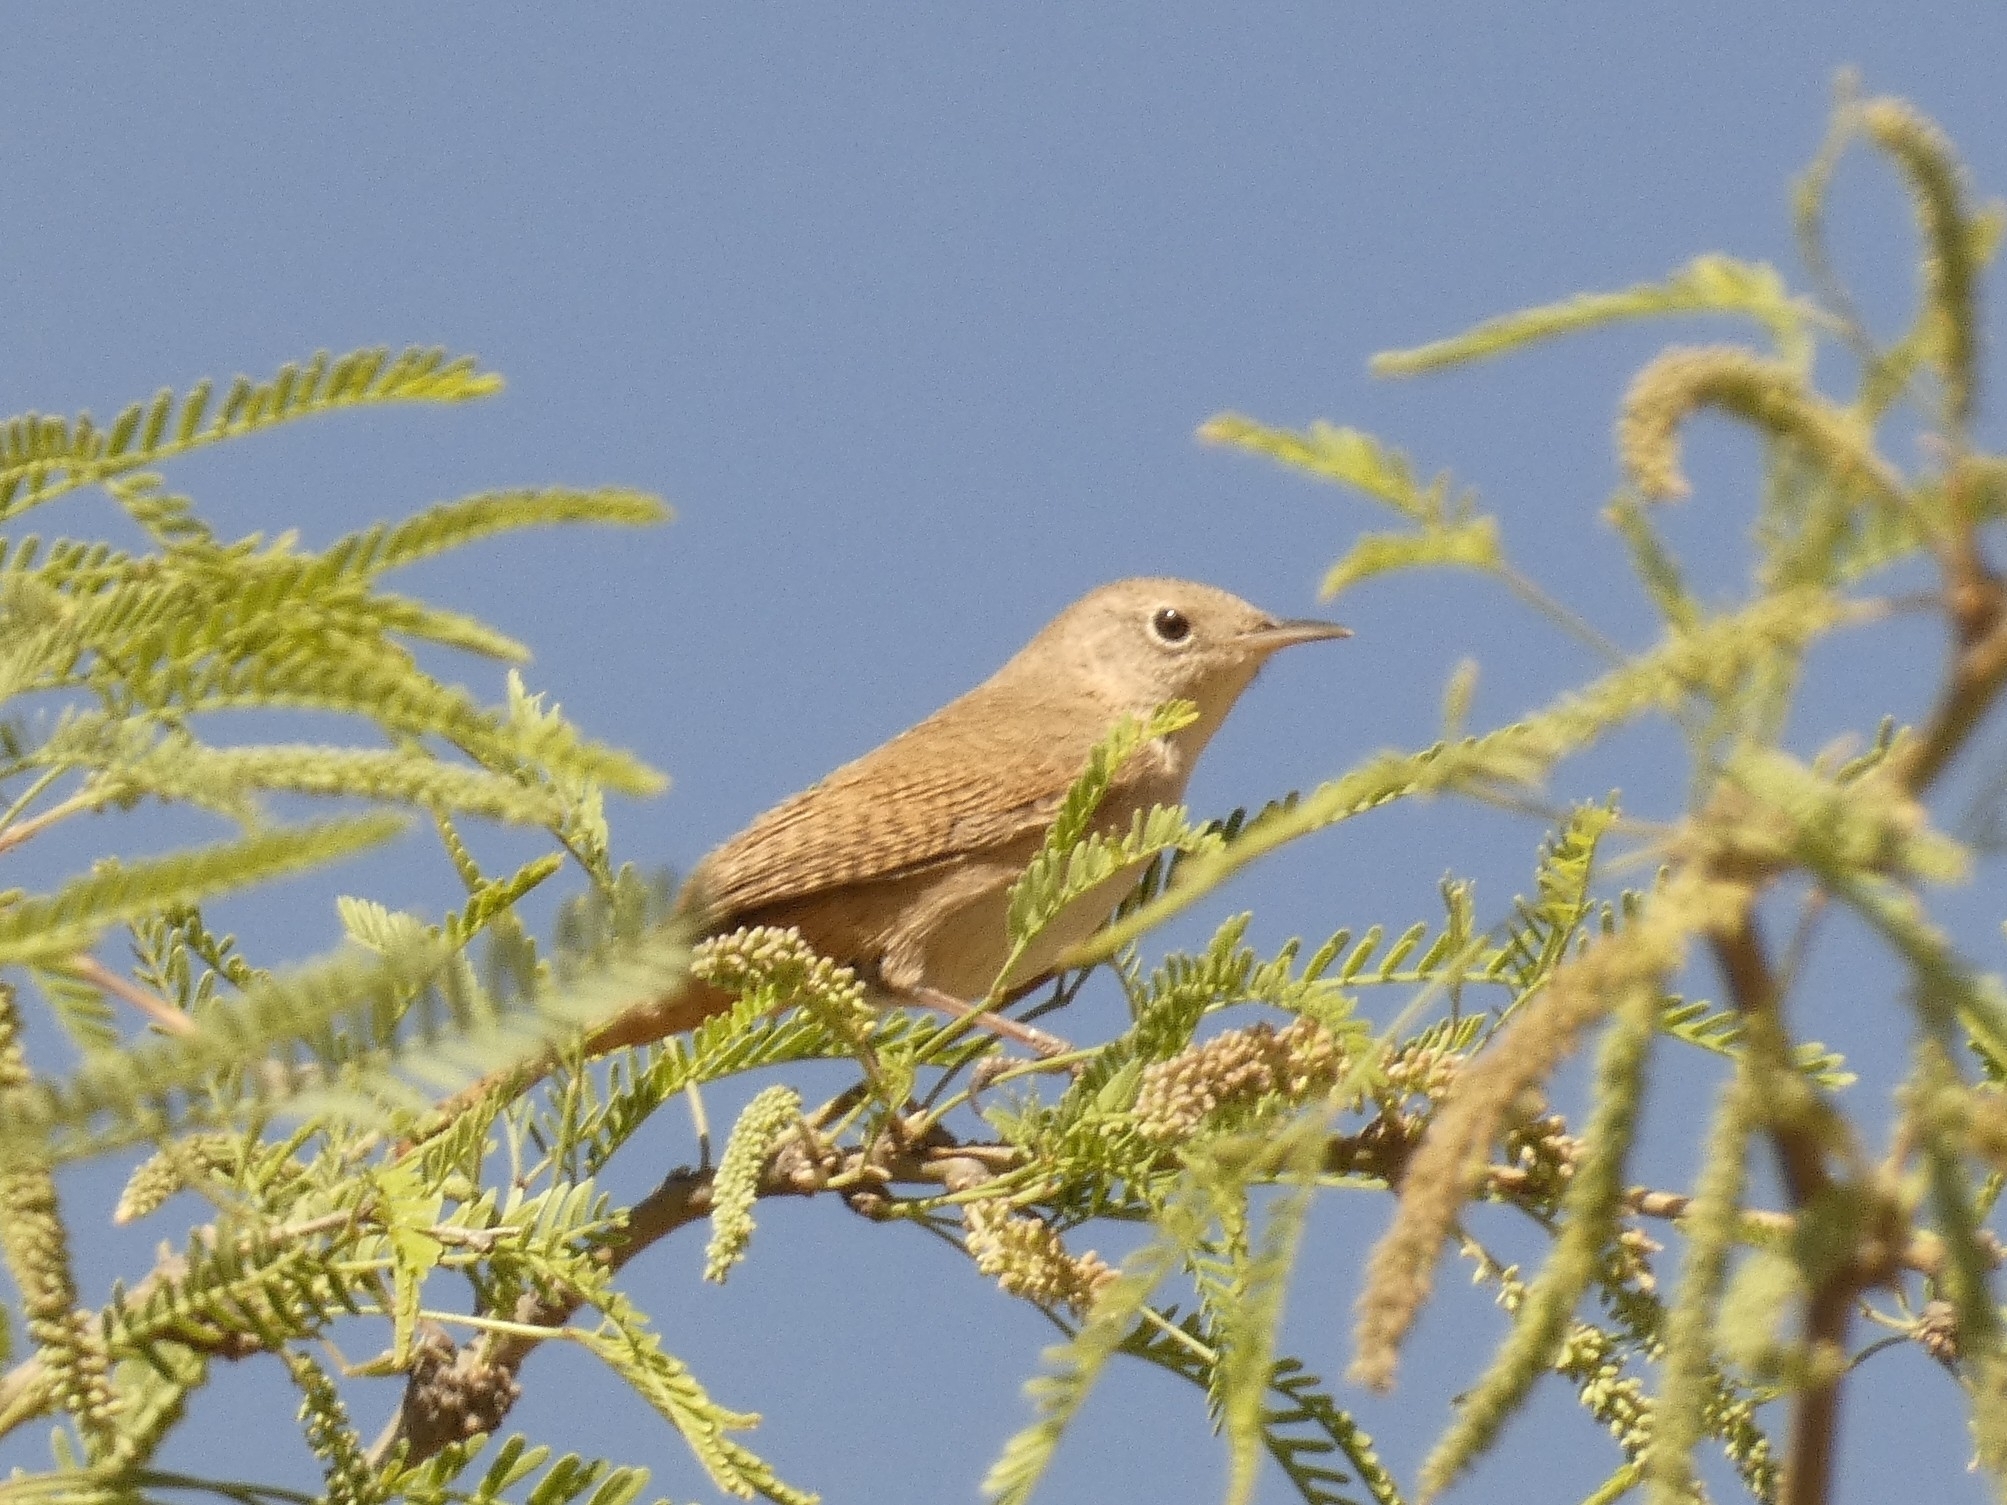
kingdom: Animalia
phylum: Chordata
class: Aves
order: Passeriformes
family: Troglodytidae
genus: Troglodytes
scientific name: Troglodytes aedon
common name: House wren
